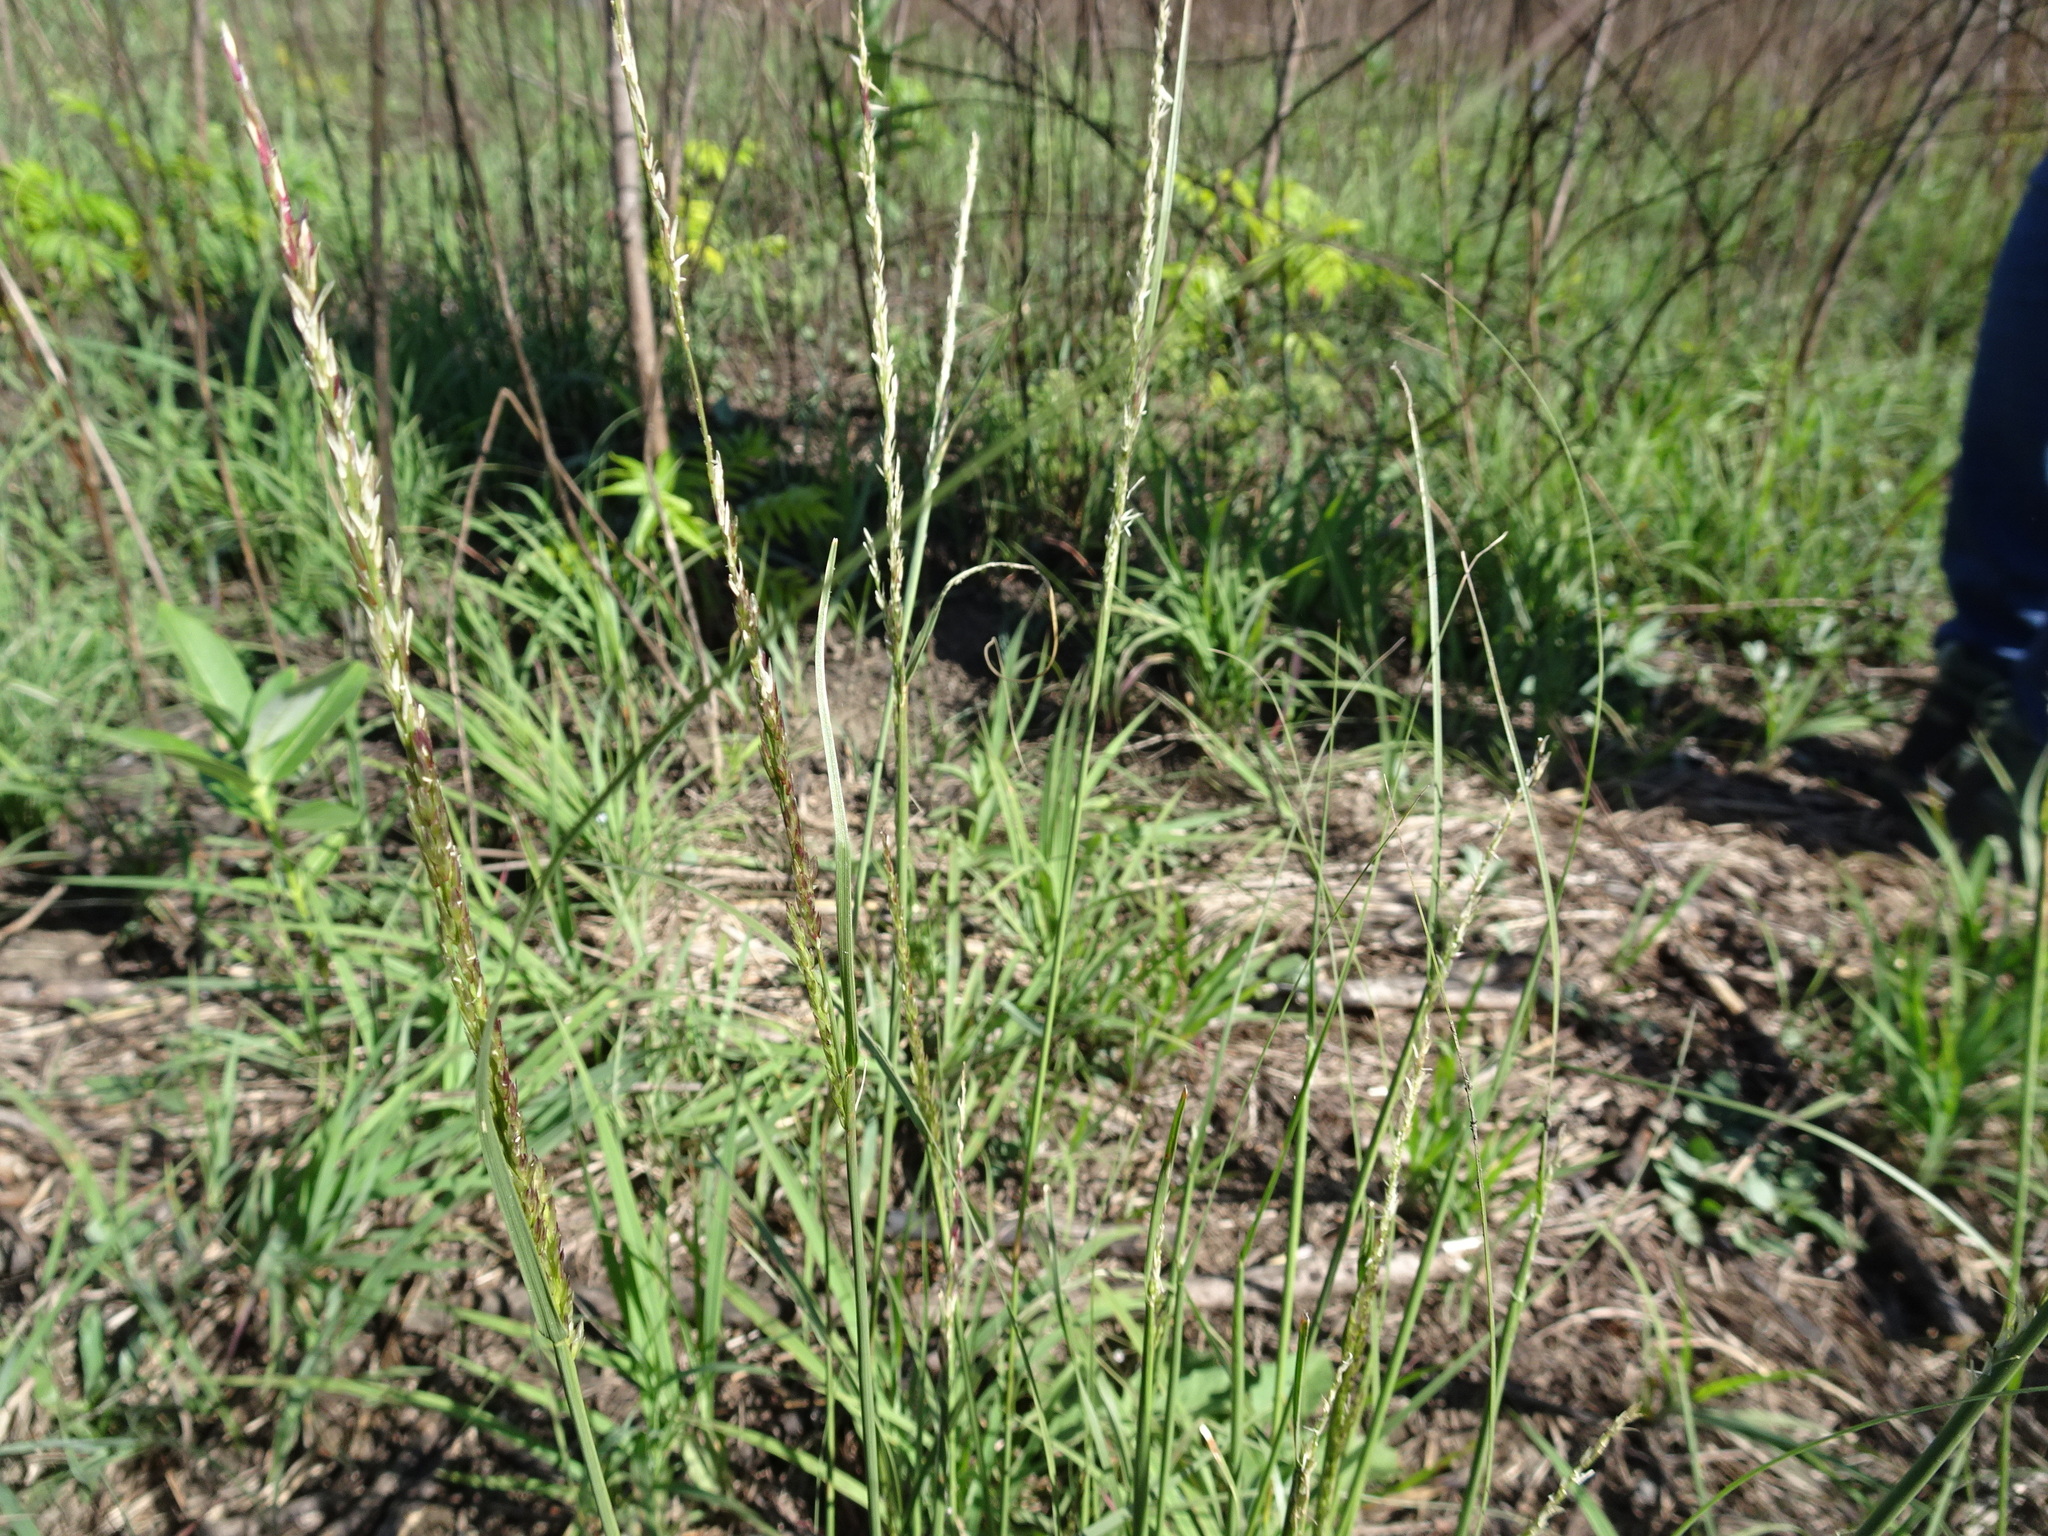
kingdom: Plantae
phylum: Tracheophyta
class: Liliopsida
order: Poales
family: Poaceae
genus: Sporobolus
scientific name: Sporobolus compositus
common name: Rough dropseed
